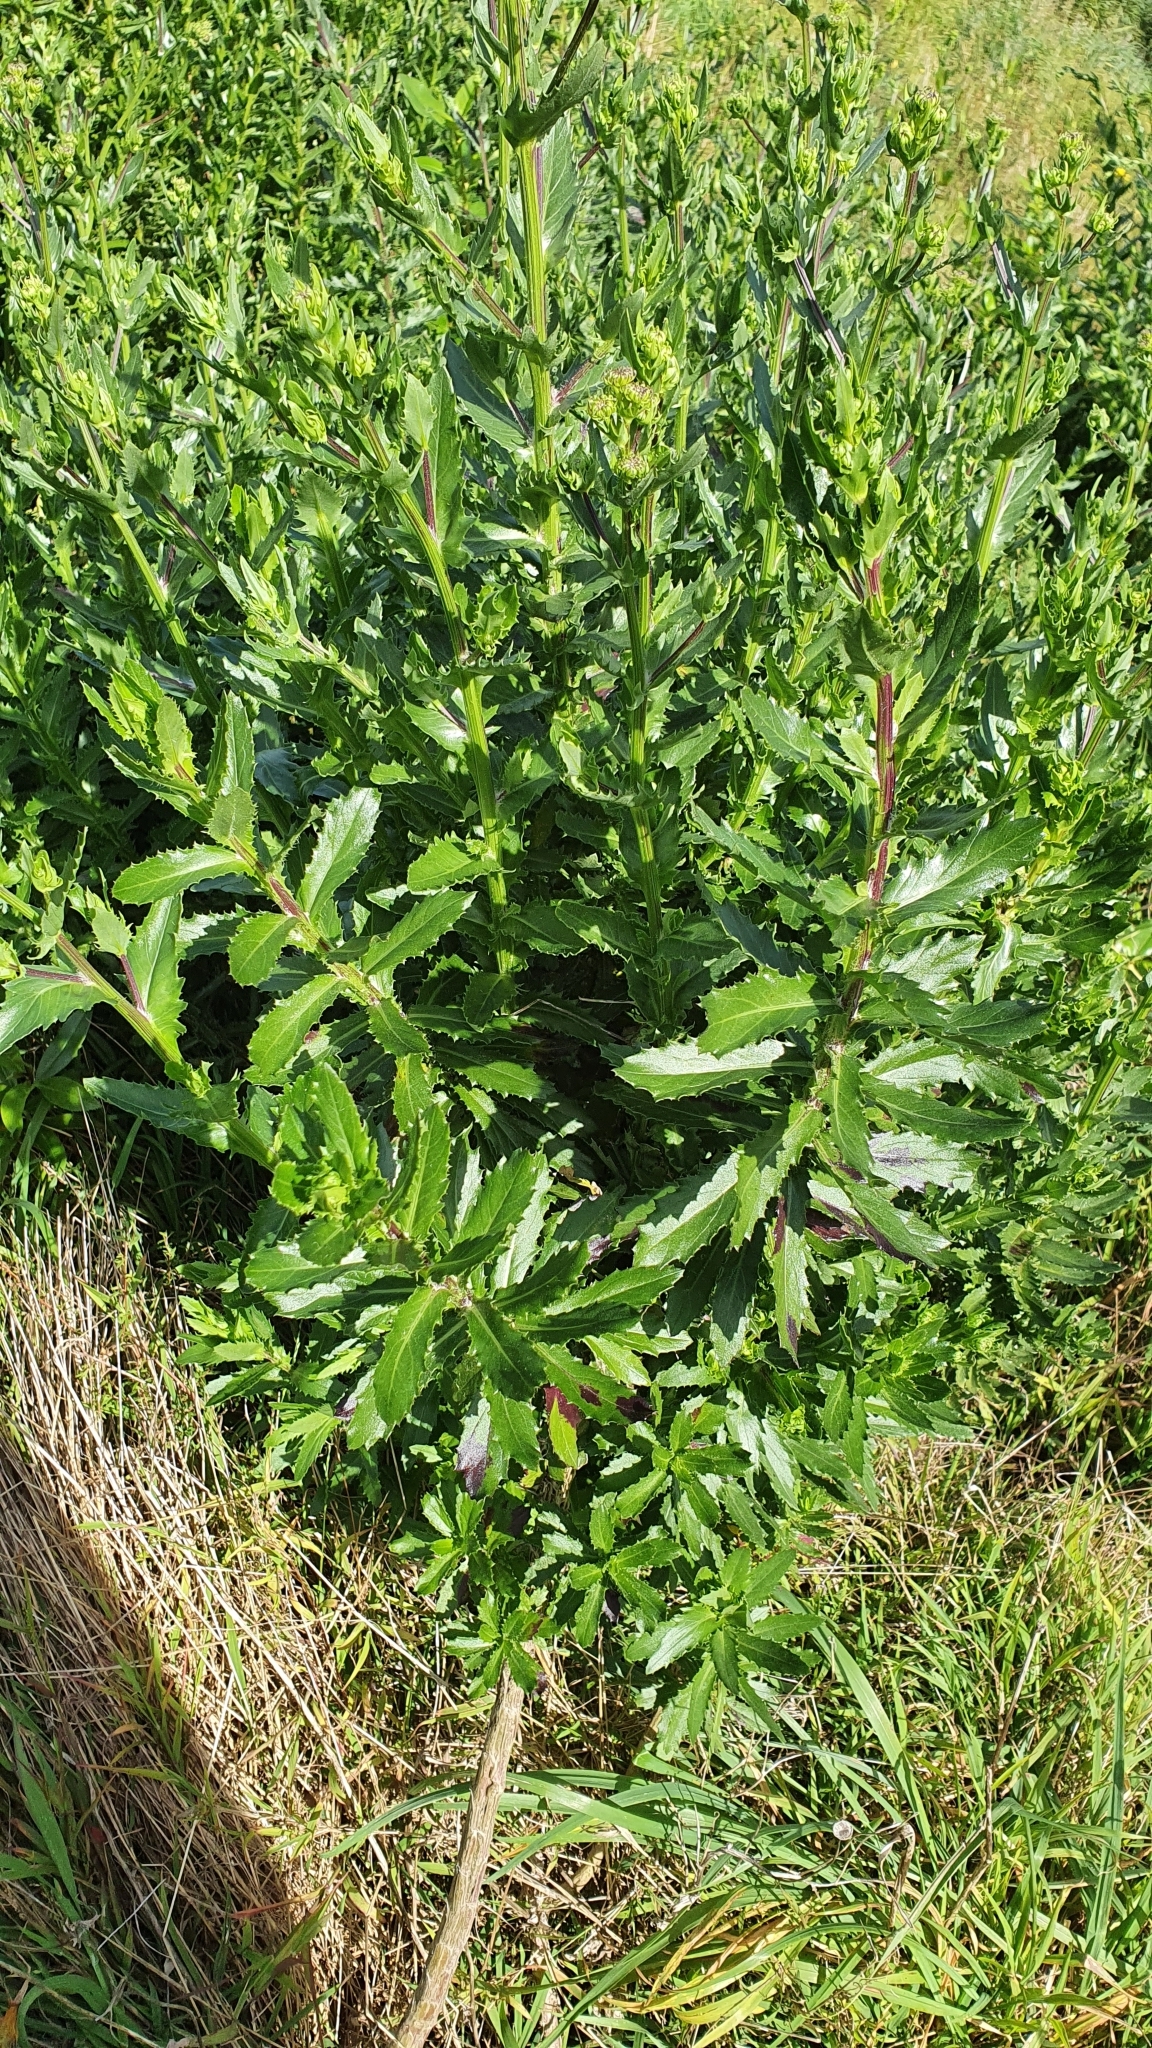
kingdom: Plantae
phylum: Tracheophyta
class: Magnoliopsida
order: Asterales
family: Asteraceae
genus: Senecio
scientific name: Senecio glastifolius
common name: Woad-leaved ragwort
